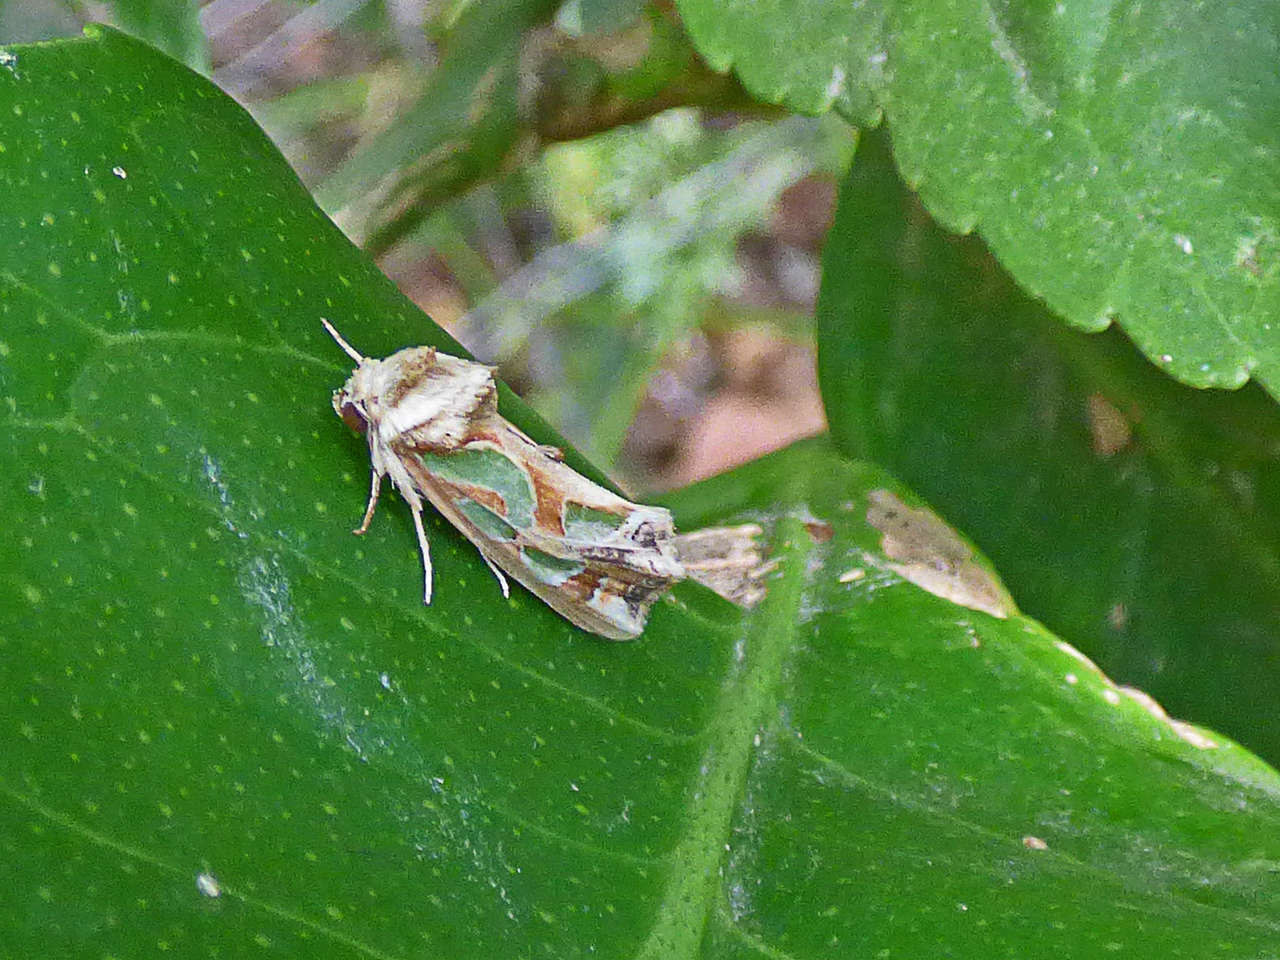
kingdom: Animalia
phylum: Arthropoda
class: Insecta
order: Lepidoptera
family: Noctuidae
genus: Cosmodes
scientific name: Cosmodes elegans
